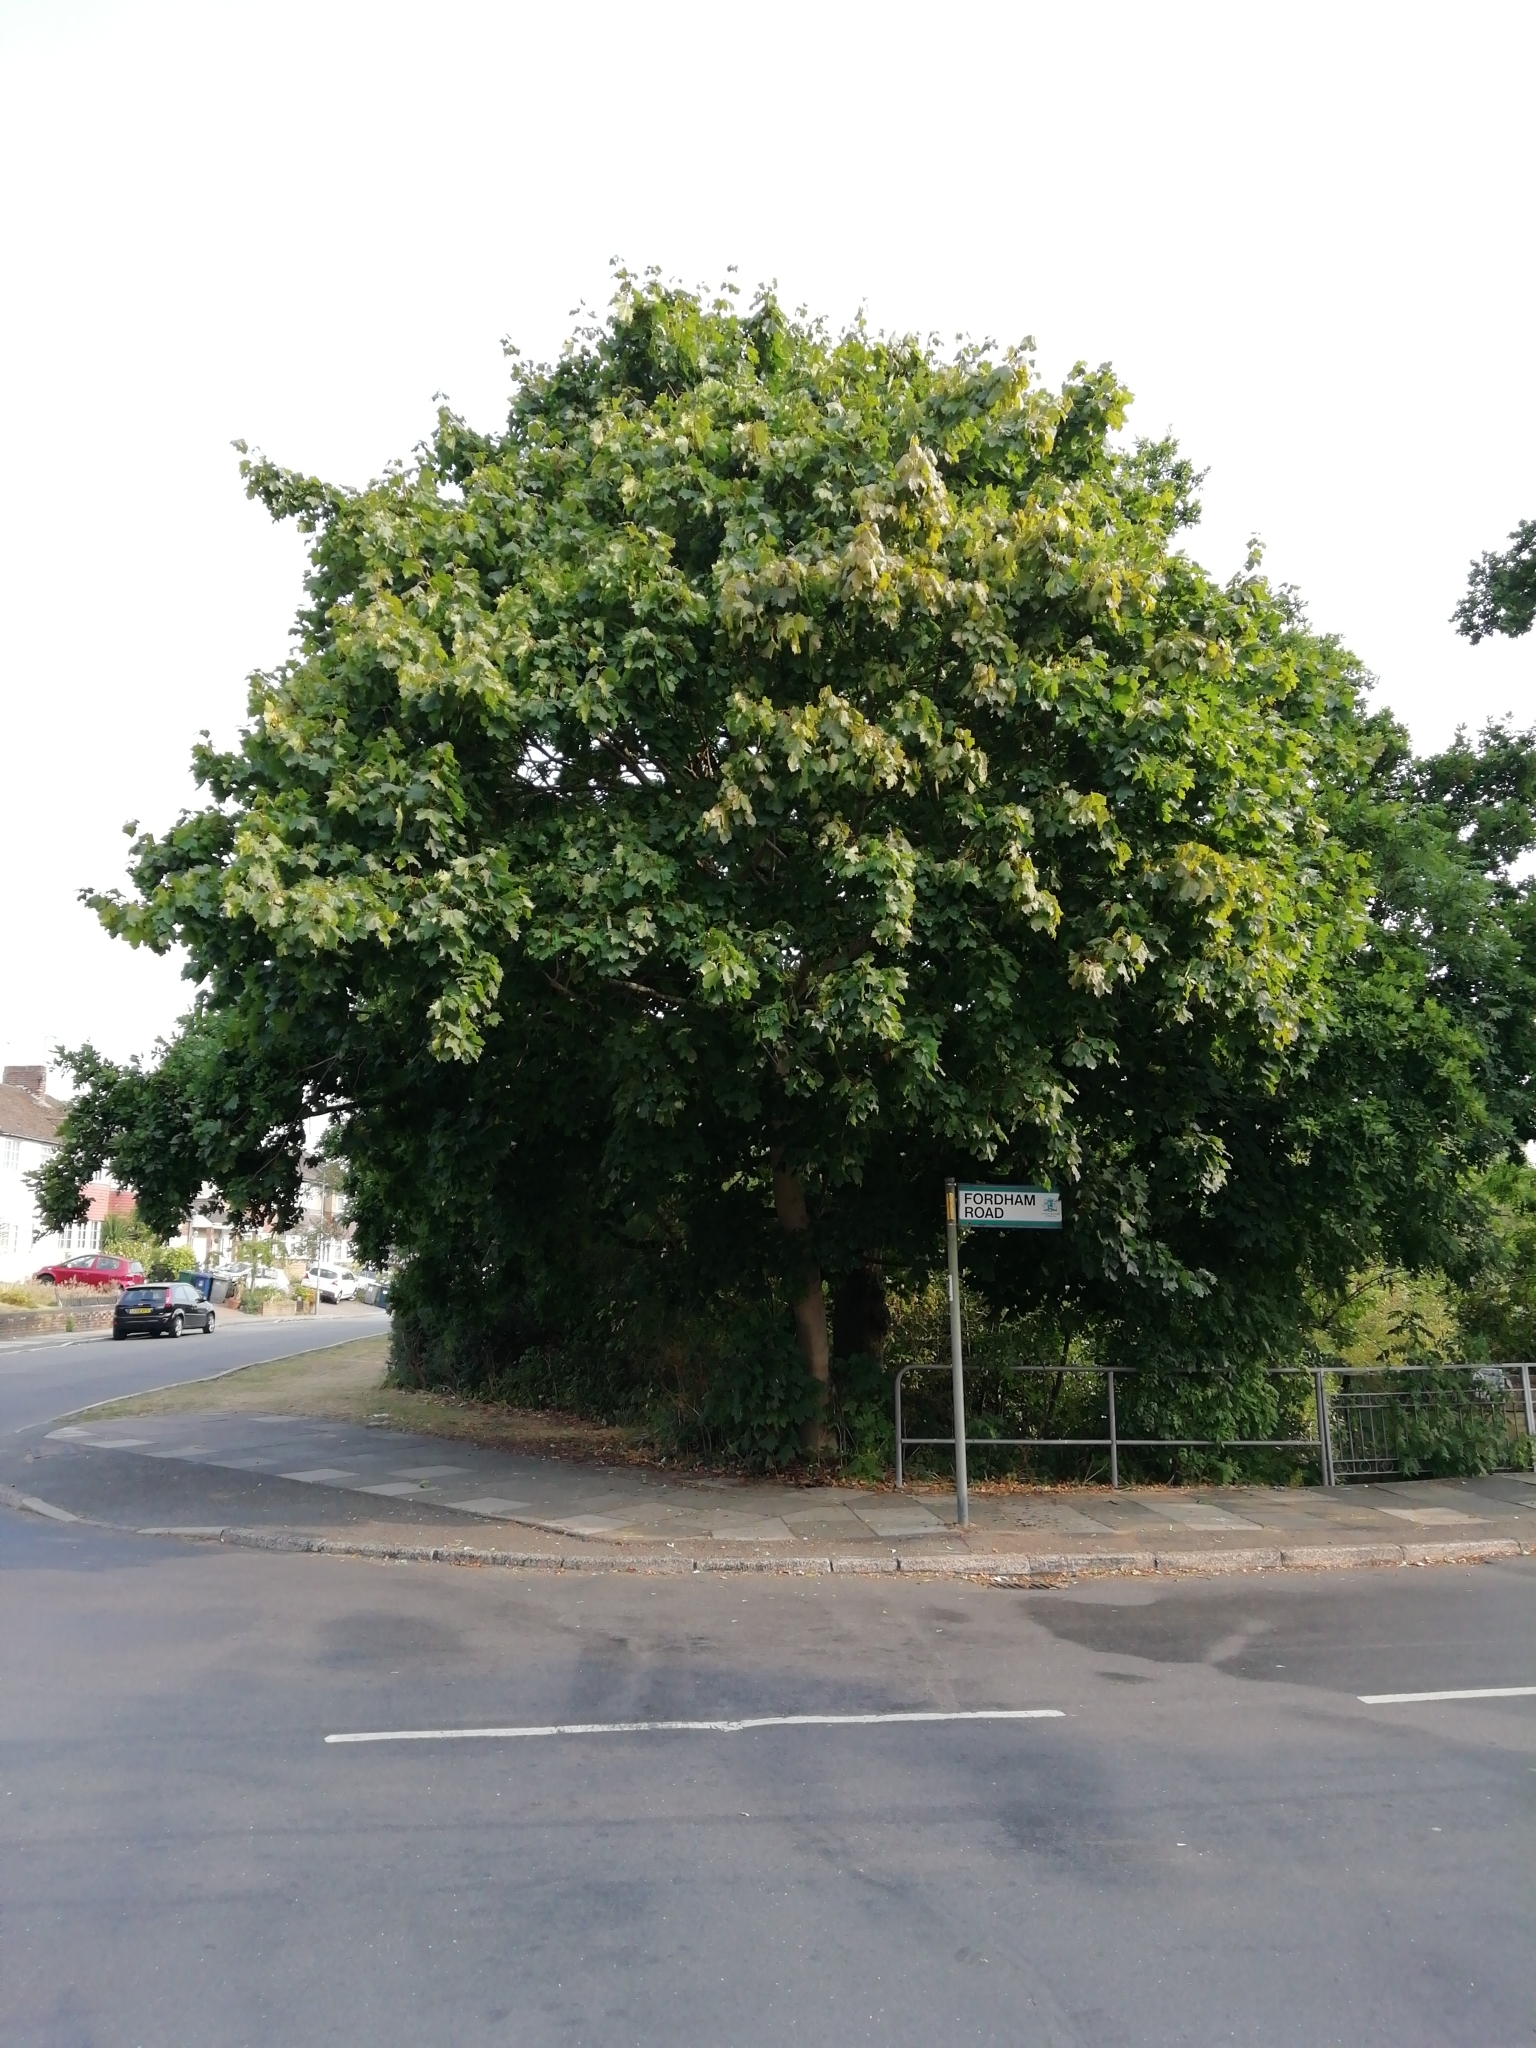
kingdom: Plantae
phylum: Tracheophyta
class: Magnoliopsida
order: Sapindales
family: Sapindaceae
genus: Acer
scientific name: Acer platanoides
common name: Norway maple
